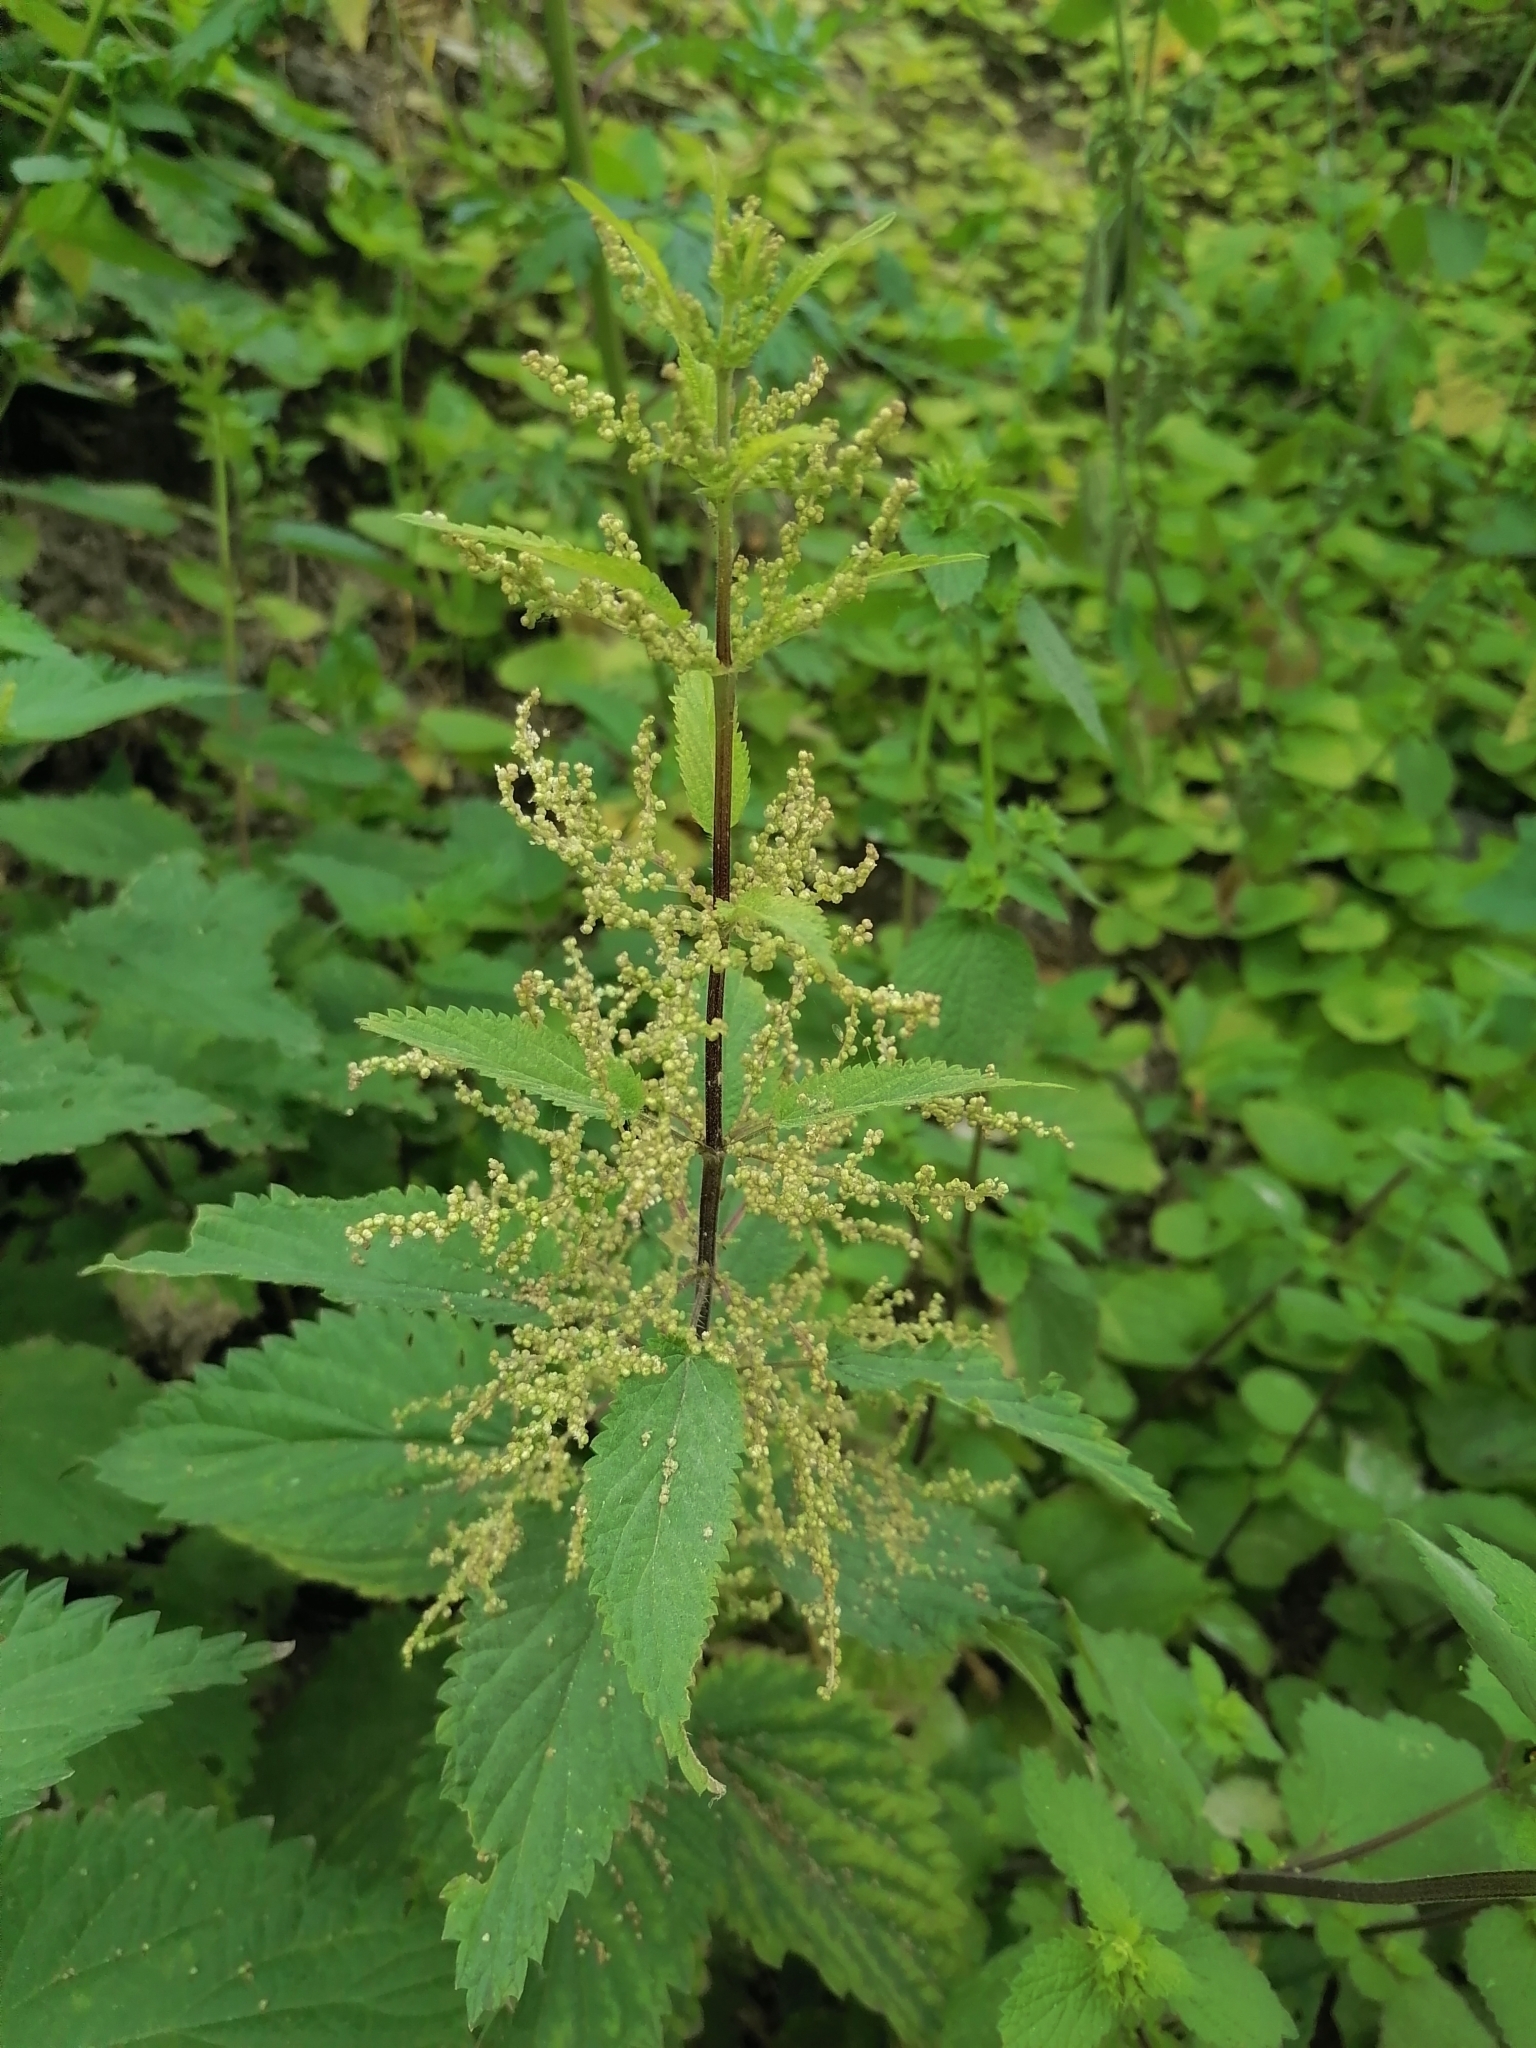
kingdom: Plantae
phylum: Tracheophyta
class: Magnoliopsida
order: Rosales
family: Urticaceae
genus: Urtica
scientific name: Urtica dioica
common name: Common nettle
